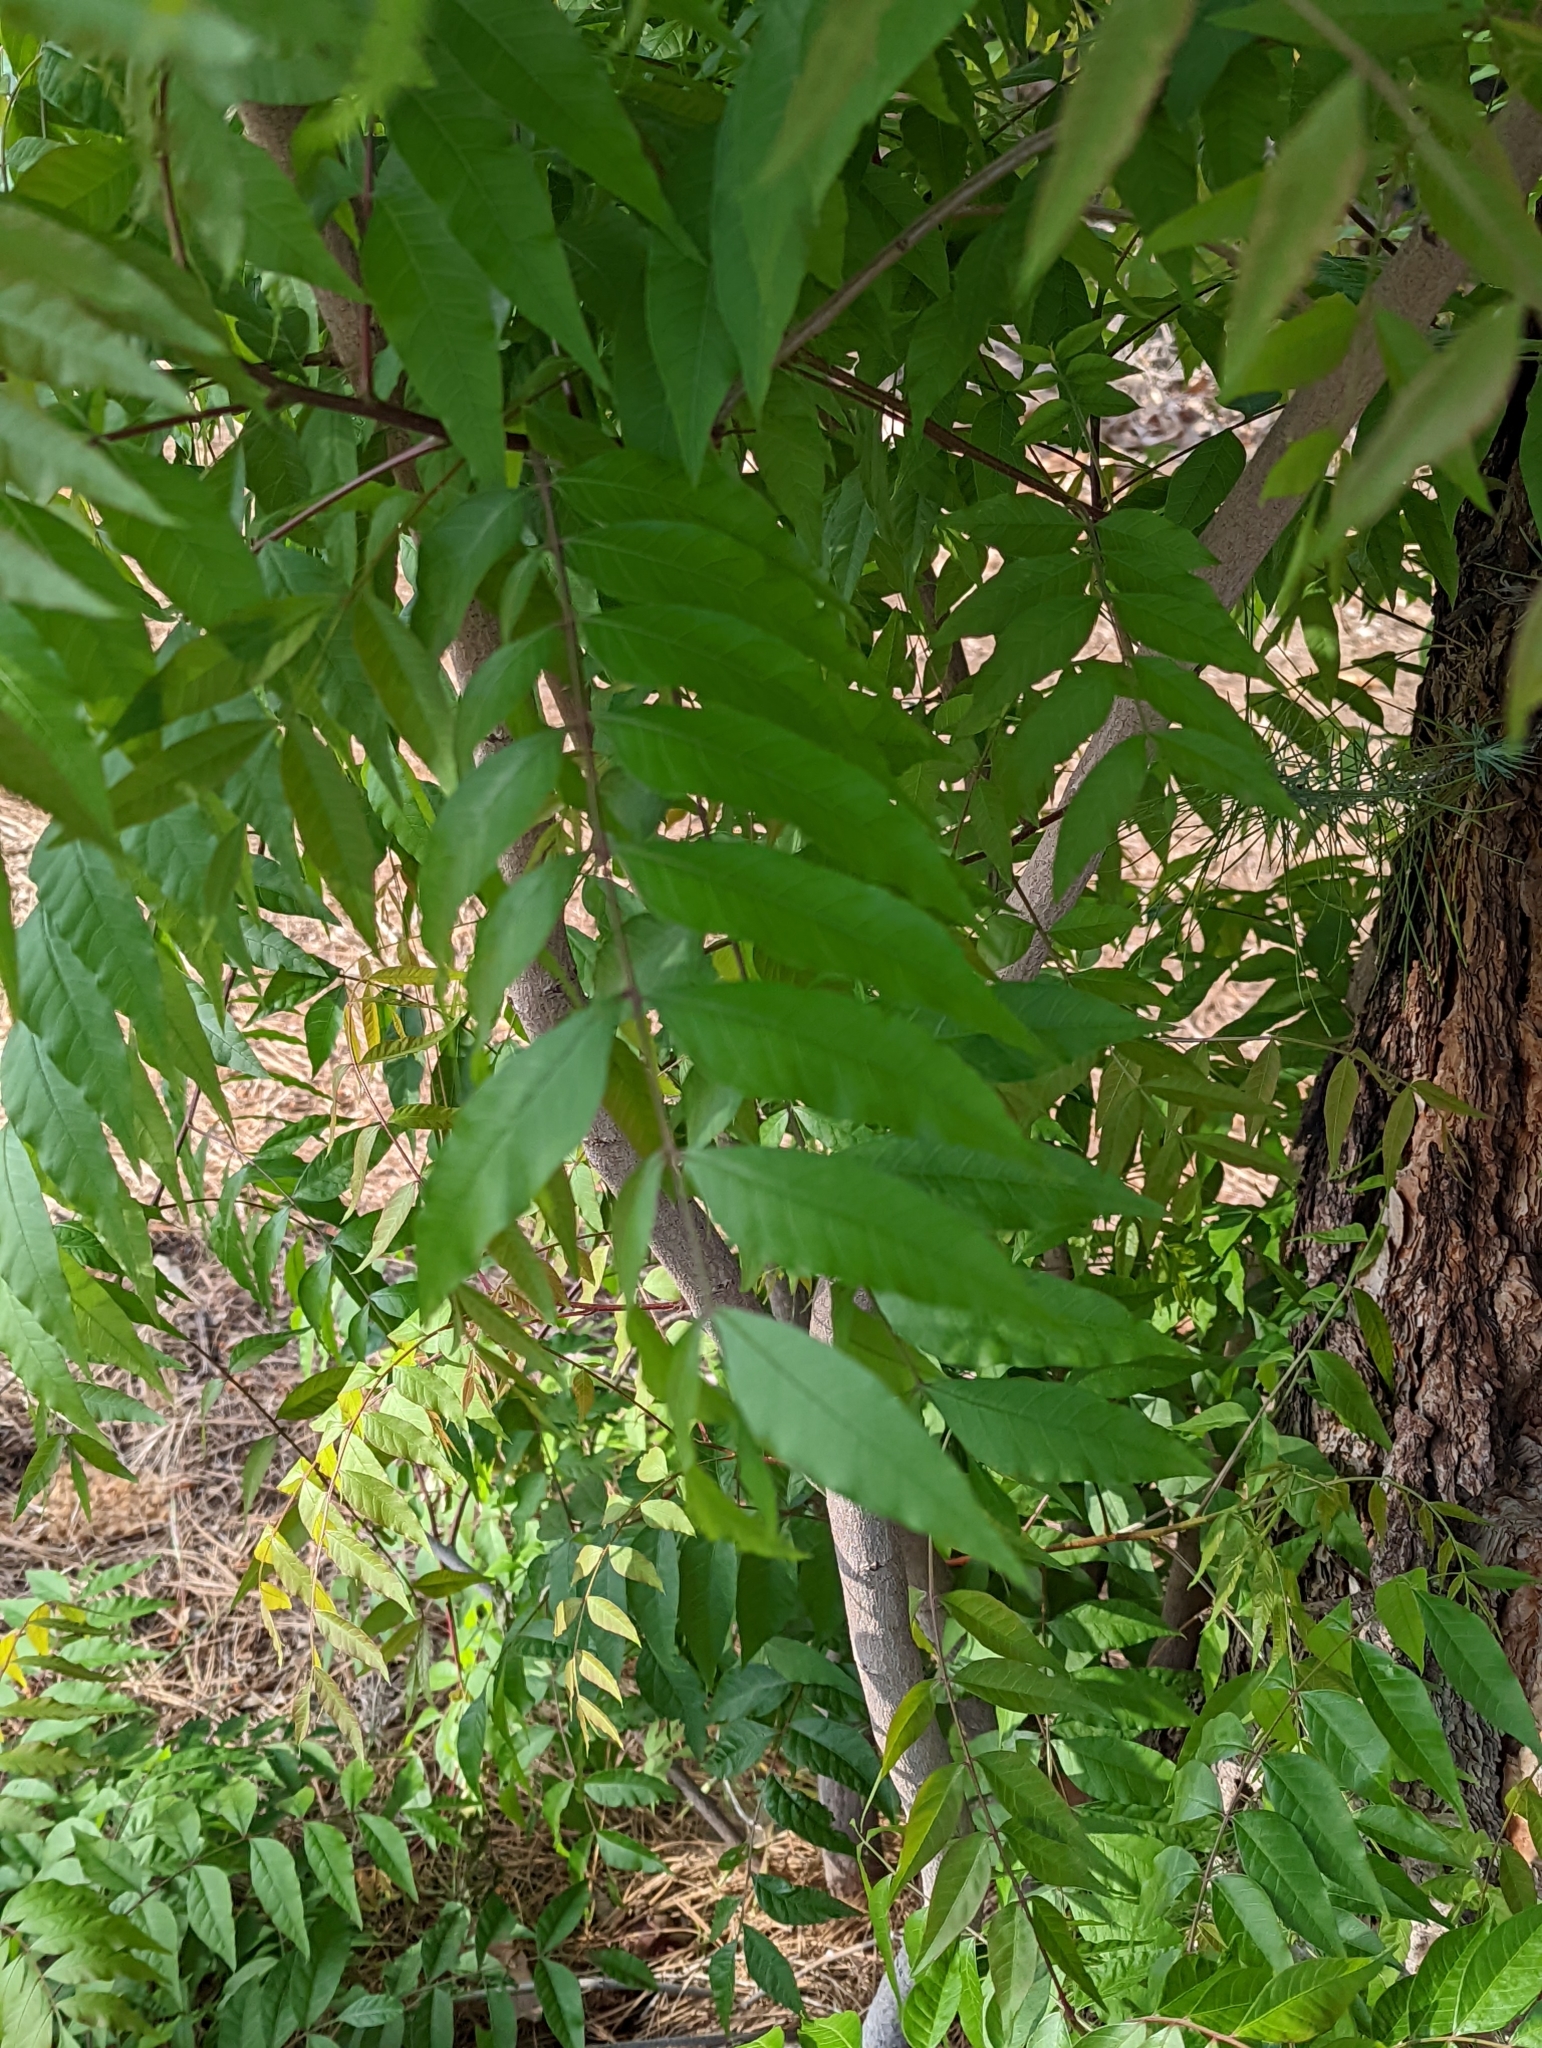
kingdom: Plantae
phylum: Tracheophyta
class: Magnoliopsida
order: Sapindales
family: Anacardiaceae
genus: Pistacia
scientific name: Pistacia chinensis
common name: Chinese pistache
